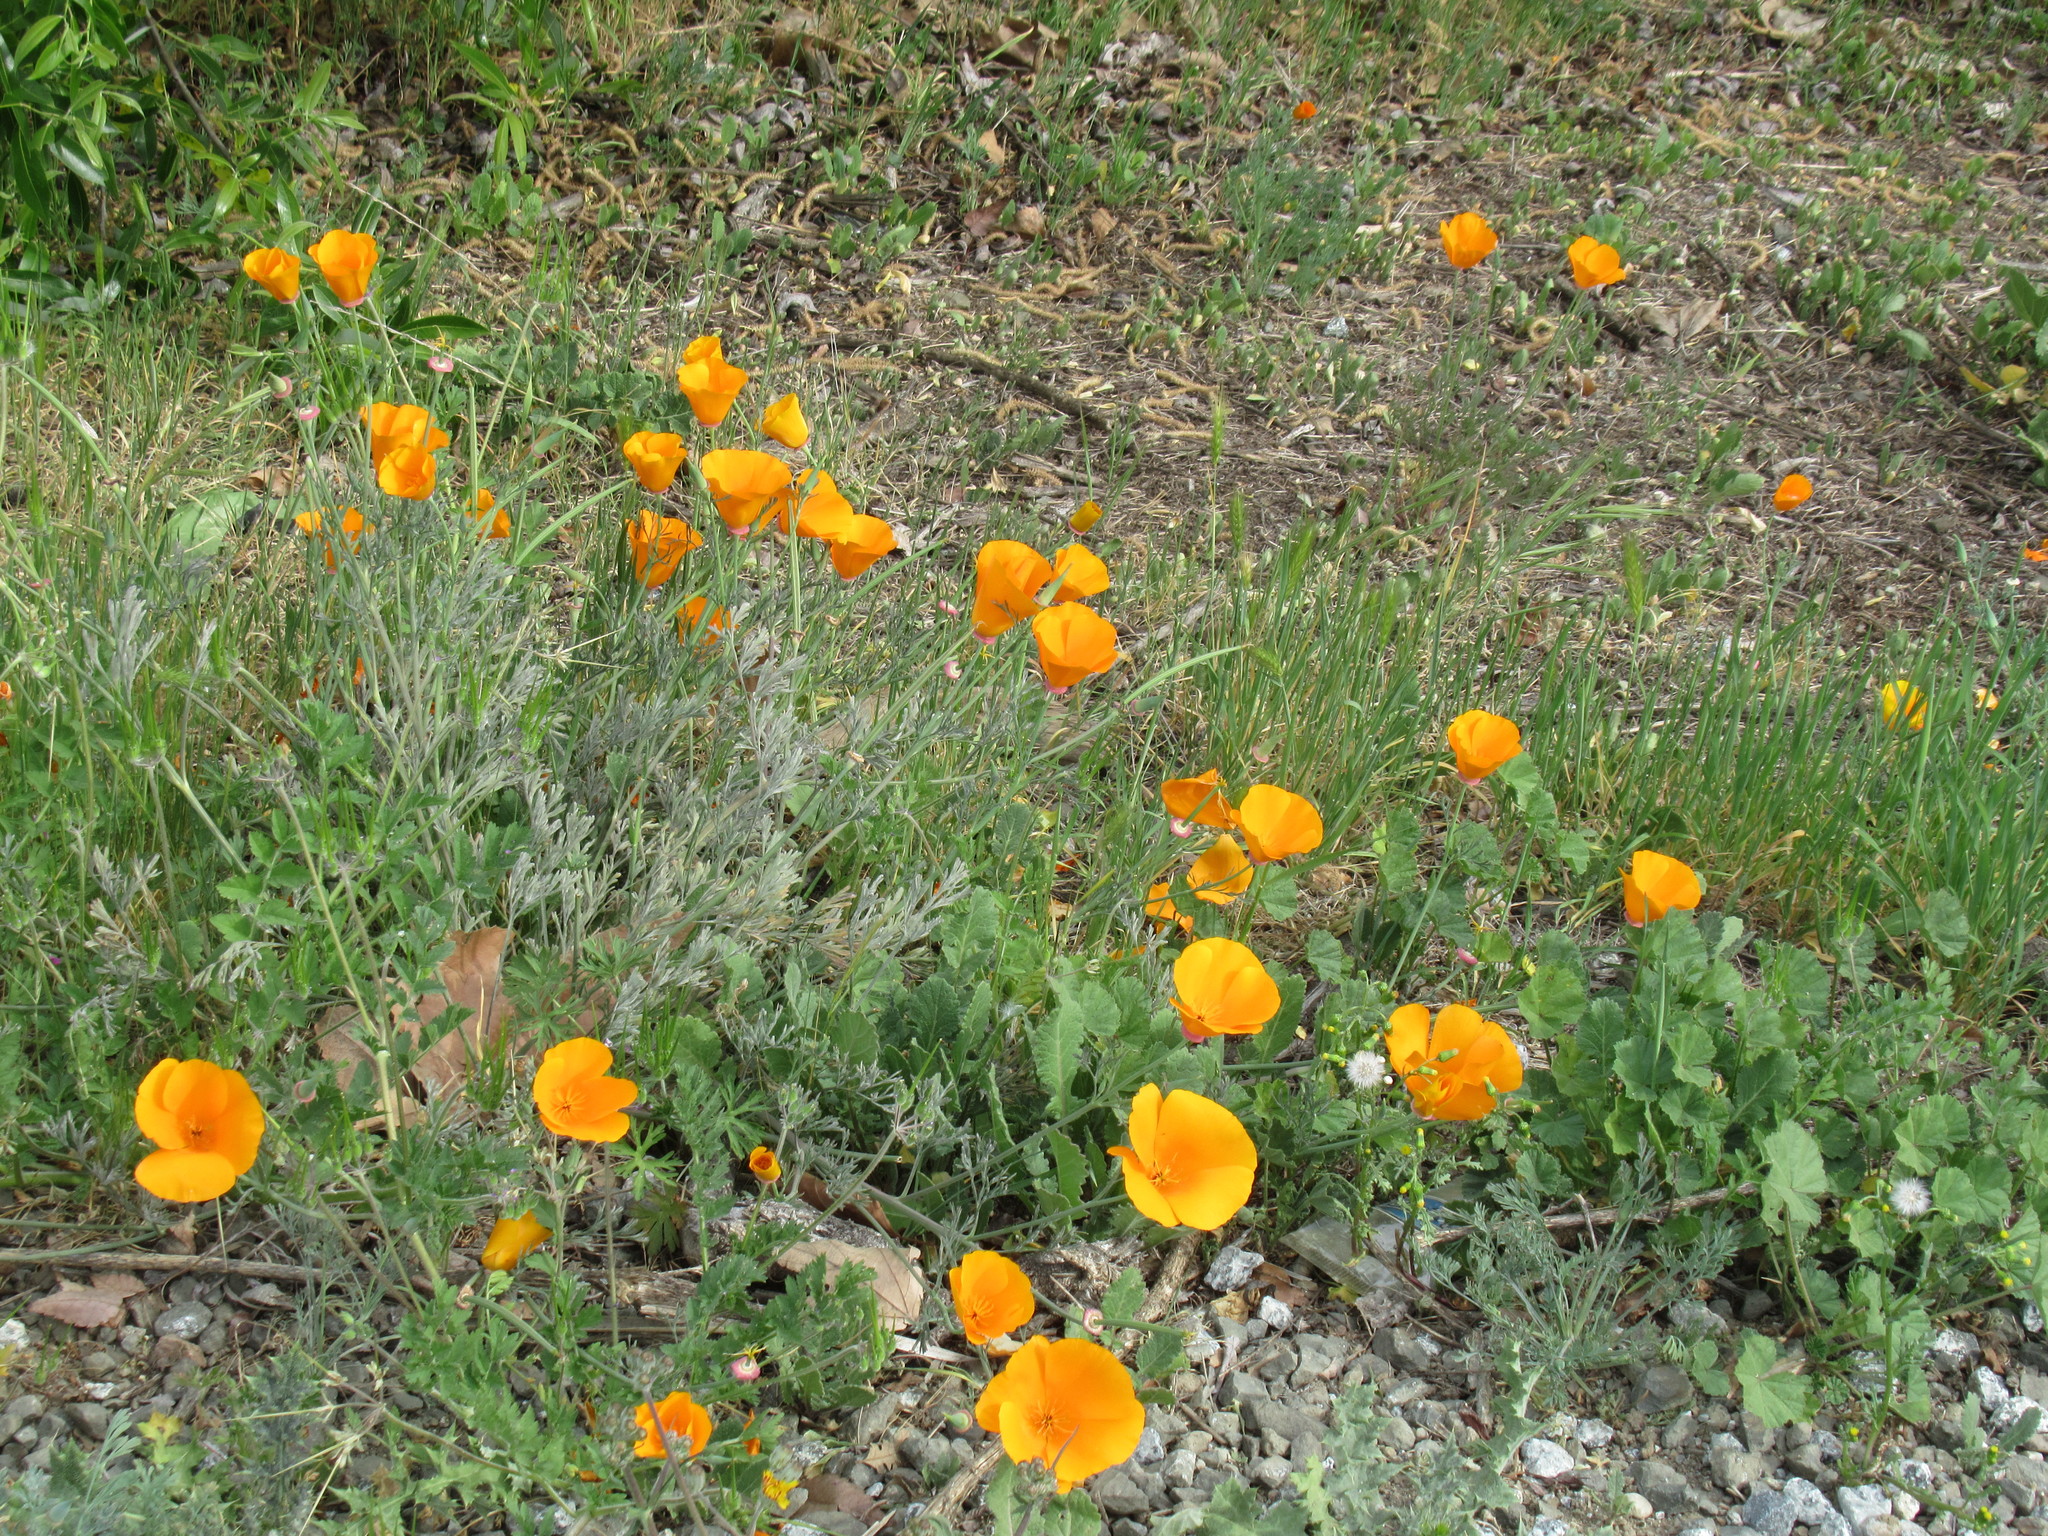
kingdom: Plantae
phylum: Tracheophyta
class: Magnoliopsida
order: Ranunculales
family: Papaveraceae
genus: Eschscholzia
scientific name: Eschscholzia californica
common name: California poppy
